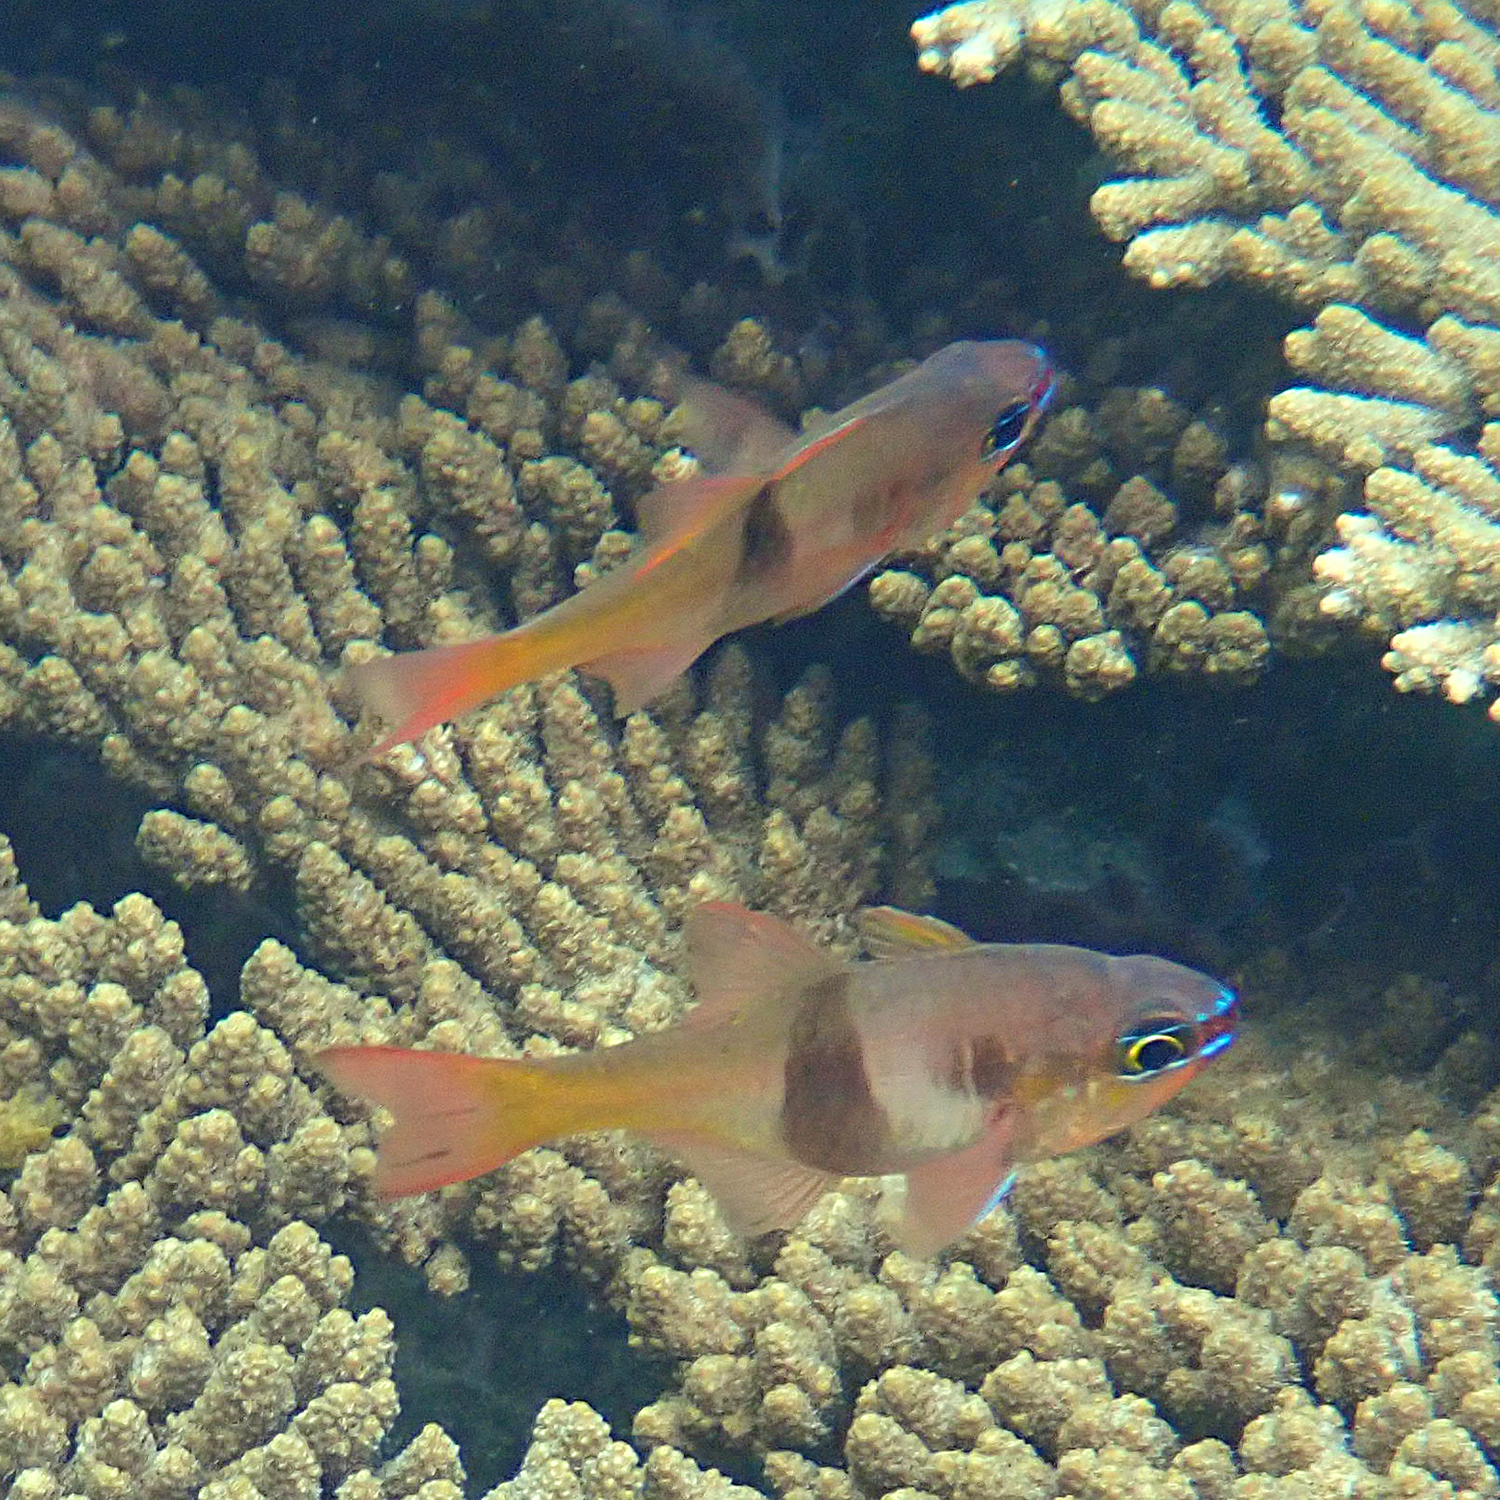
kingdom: Animalia
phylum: Chordata
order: Perciformes
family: Apogonidae
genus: Taeniamia
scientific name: Taeniamia leai
